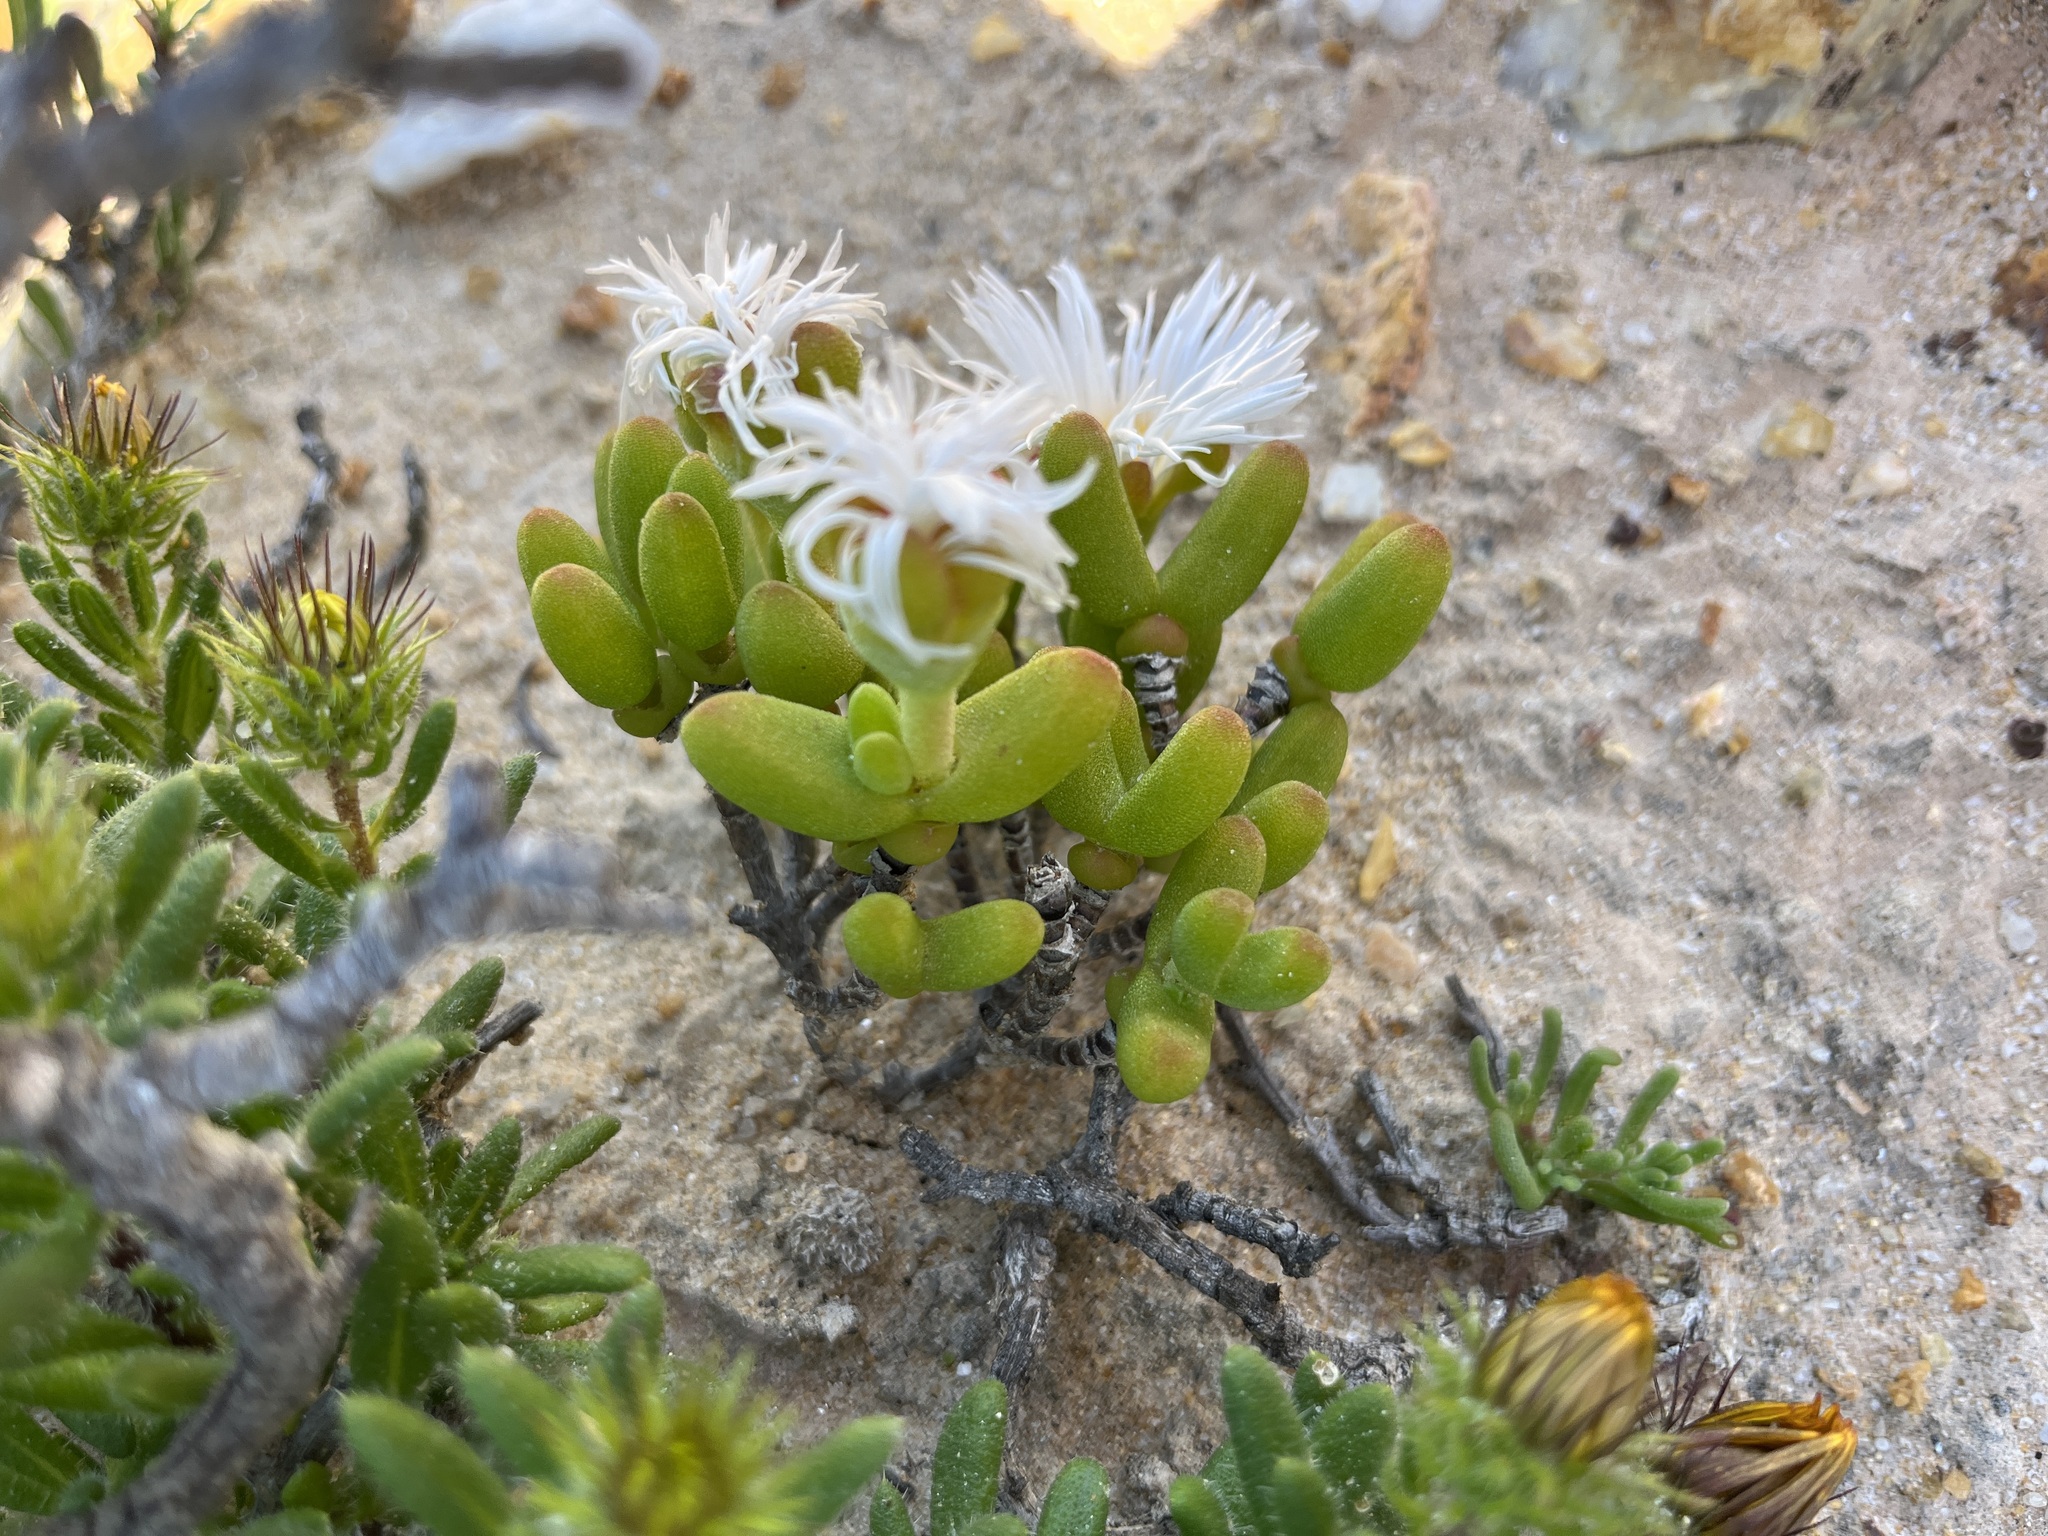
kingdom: Plantae
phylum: Tracheophyta
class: Magnoliopsida
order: Caryophyllales
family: Aizoaceae
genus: Dicrocaulon
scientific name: Dicrocaulon ramulosum
